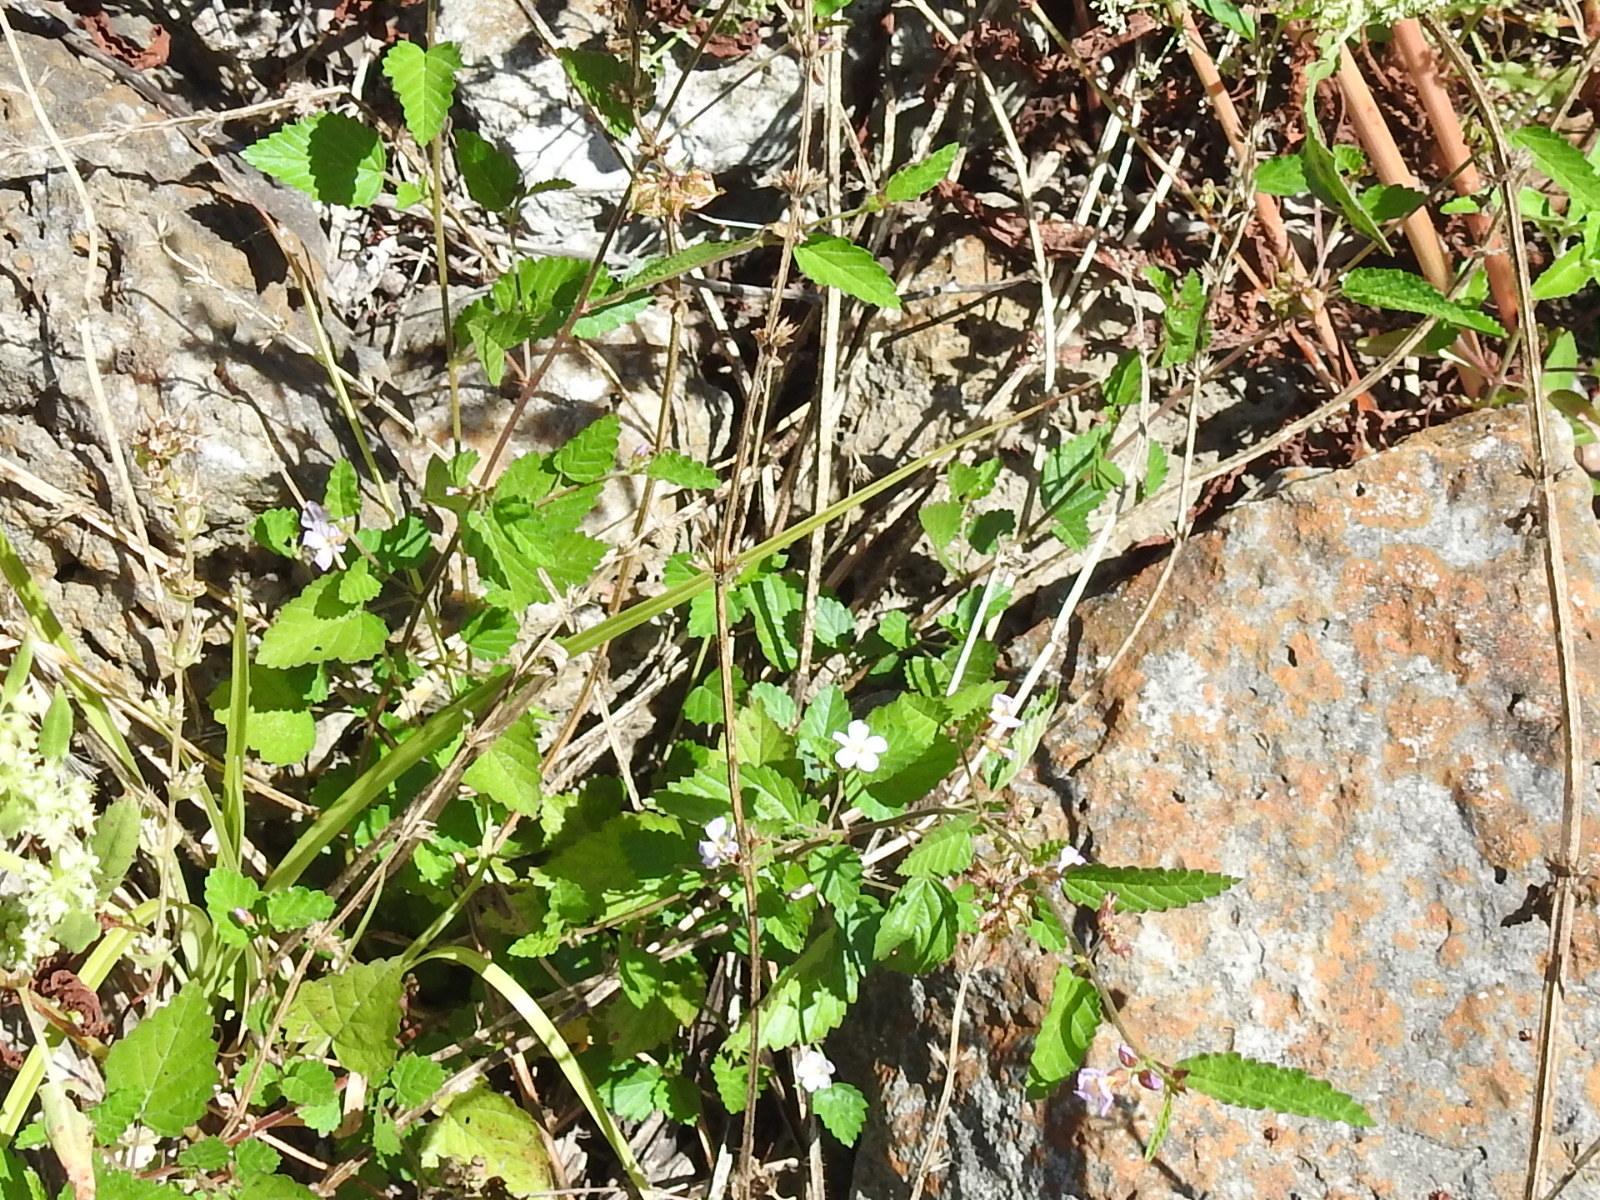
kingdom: Plantae
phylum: Tracheophyta
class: Magnoliopsida
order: Malvales
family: Malvaceae
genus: Melochia
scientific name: Melochia pyramidata
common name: Pyramidflower
